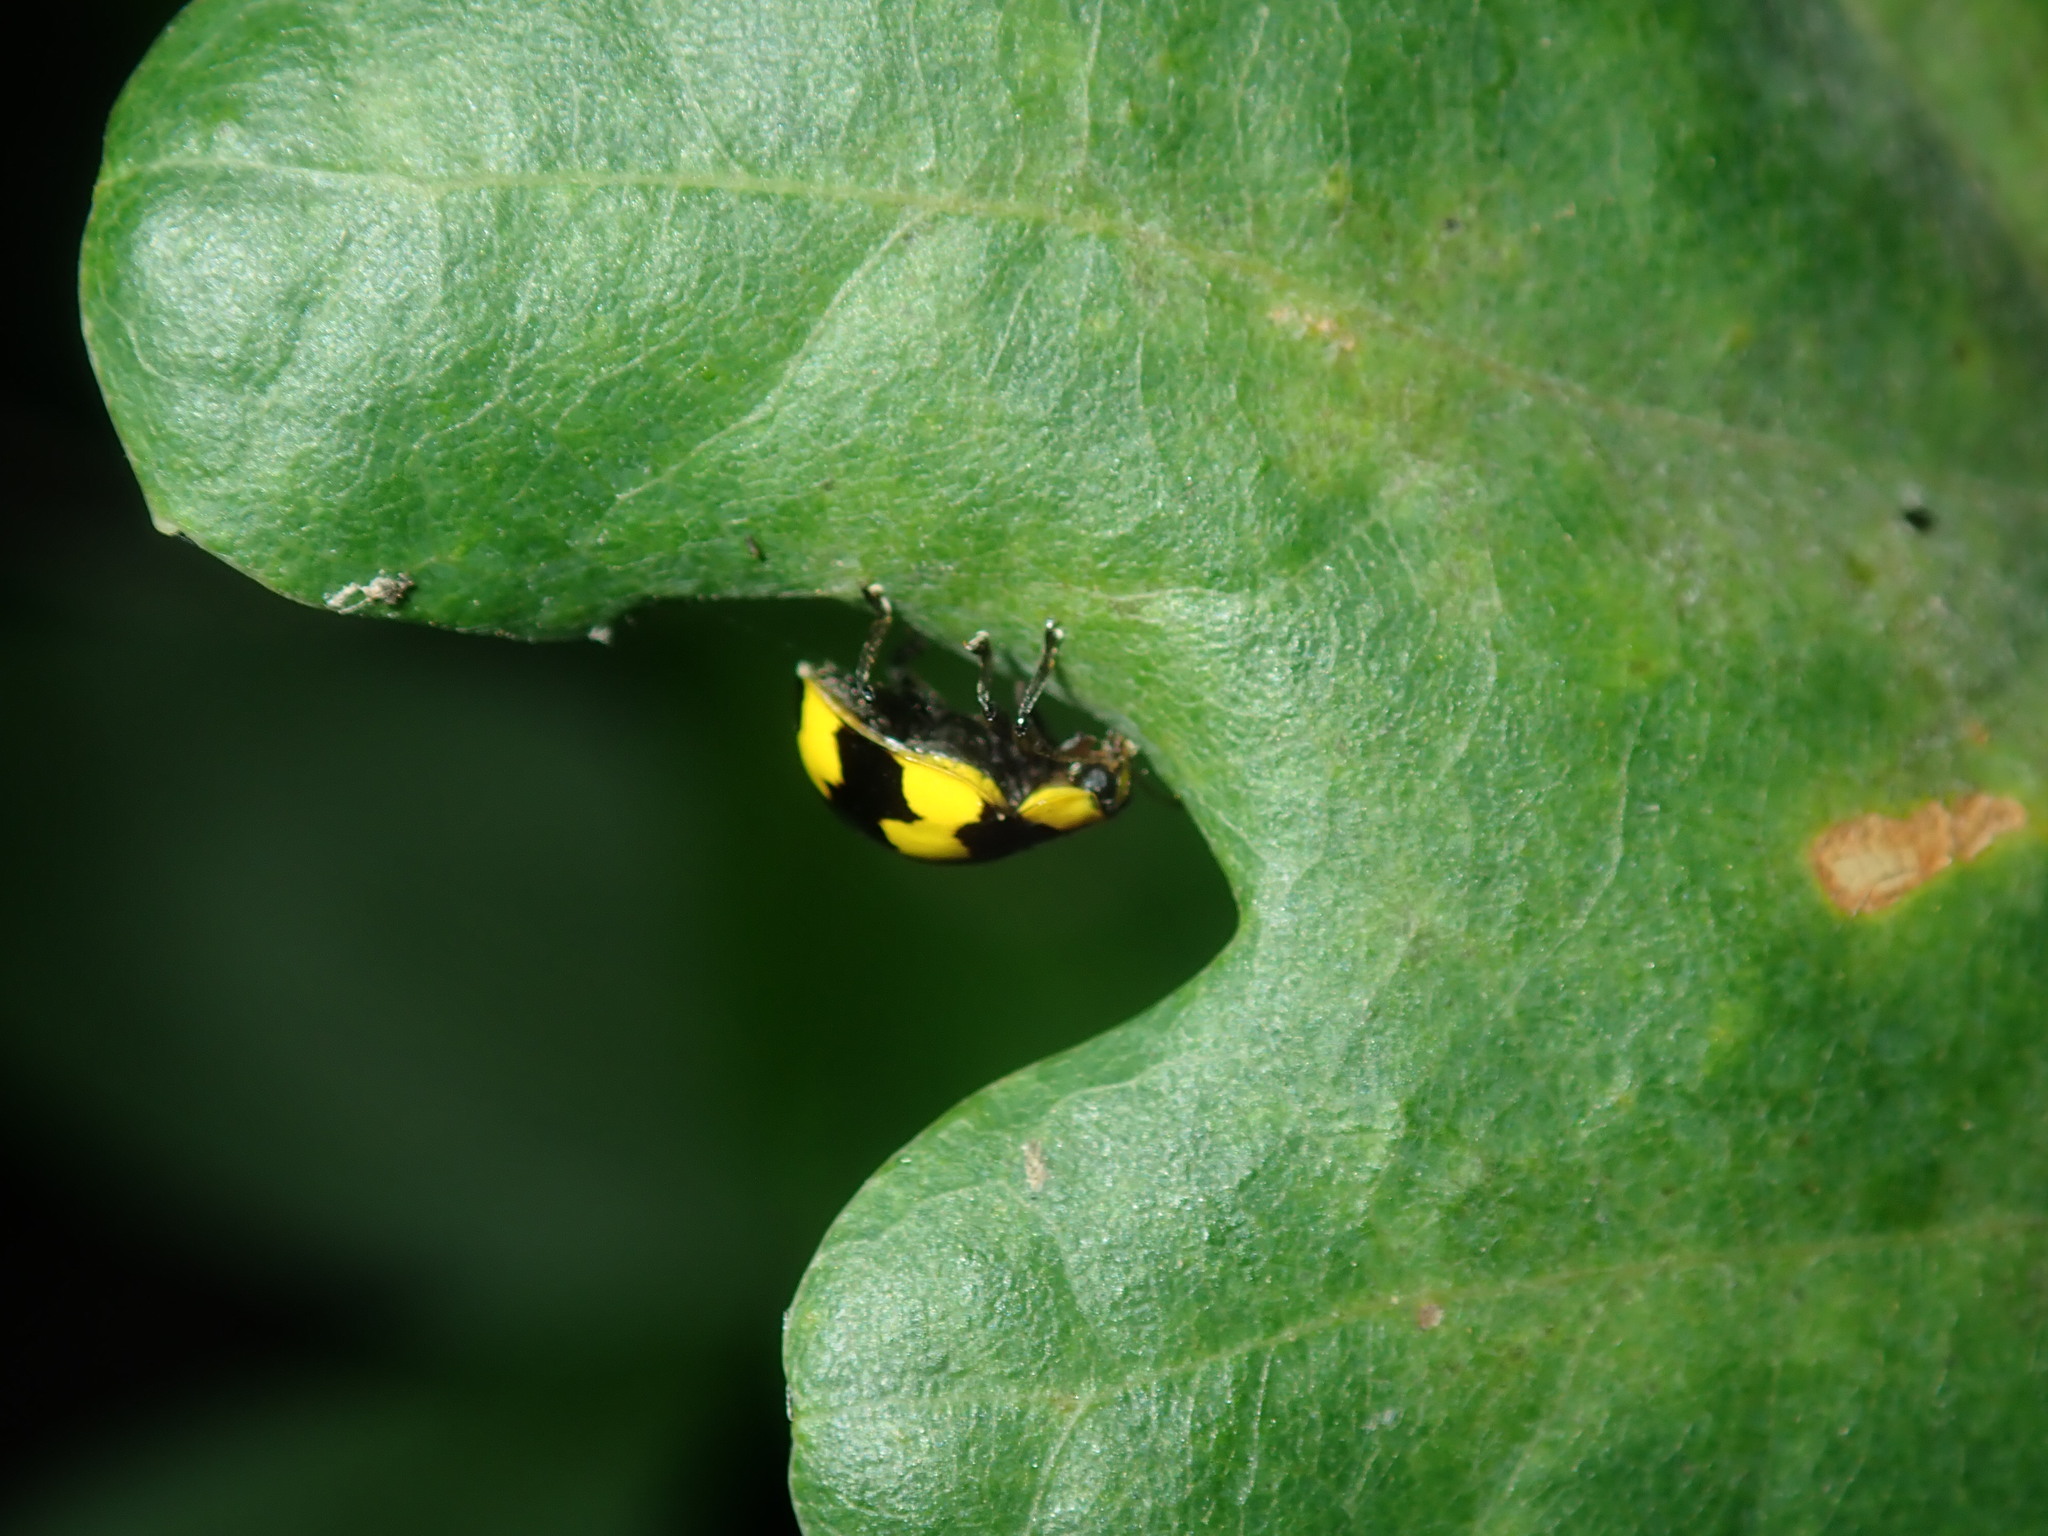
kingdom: Animalia
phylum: Arthropoda
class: Insecta
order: Coleoptera
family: Coccinellidae
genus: Illeis
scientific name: Illeis galbula
